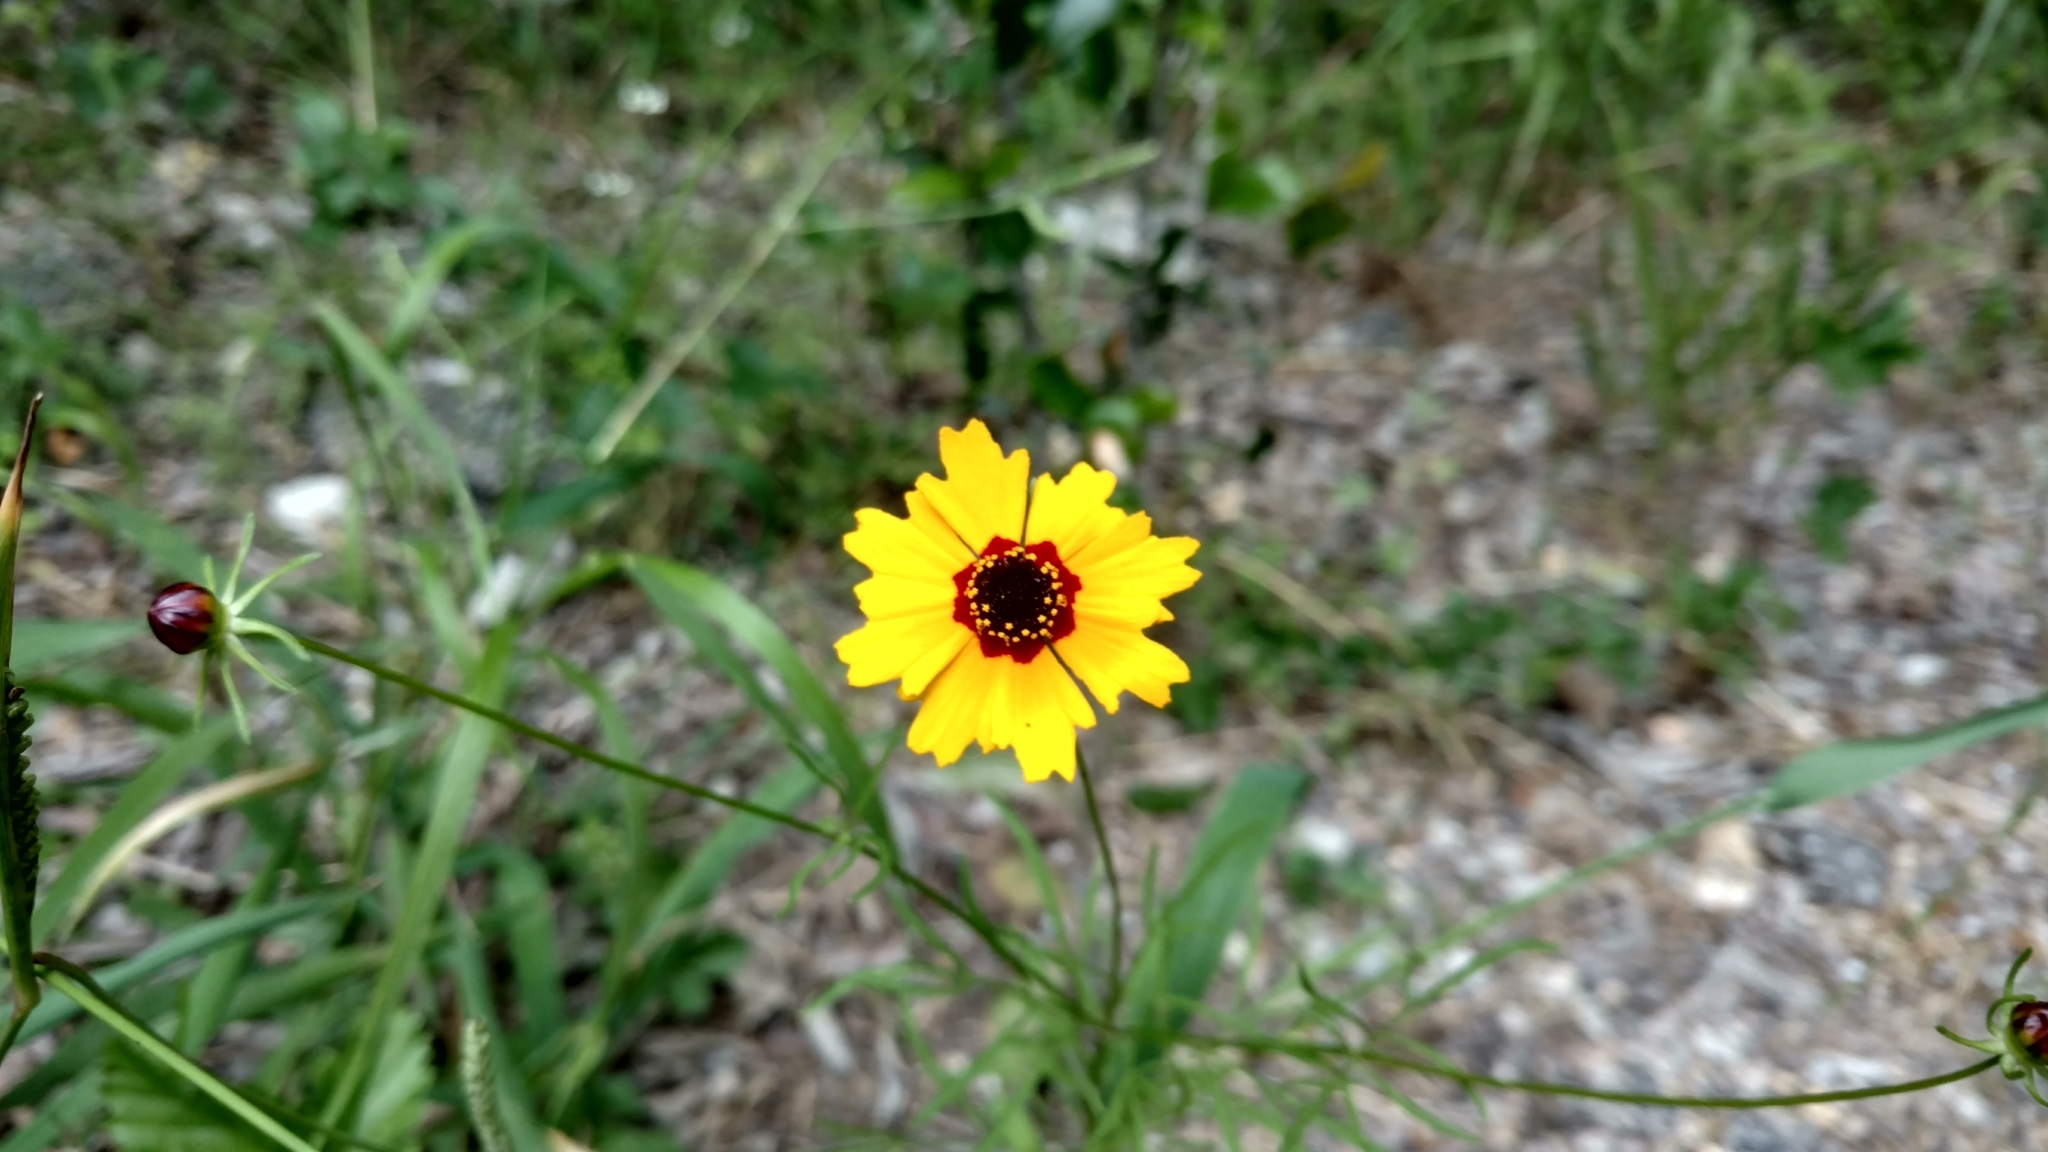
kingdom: Plantae
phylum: Tracheophyta
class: Magnoliopsida
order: Asterales
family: Asteraceae
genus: Coreopsis
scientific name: Coreopsis basalis
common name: Golden-mane coreopsis
